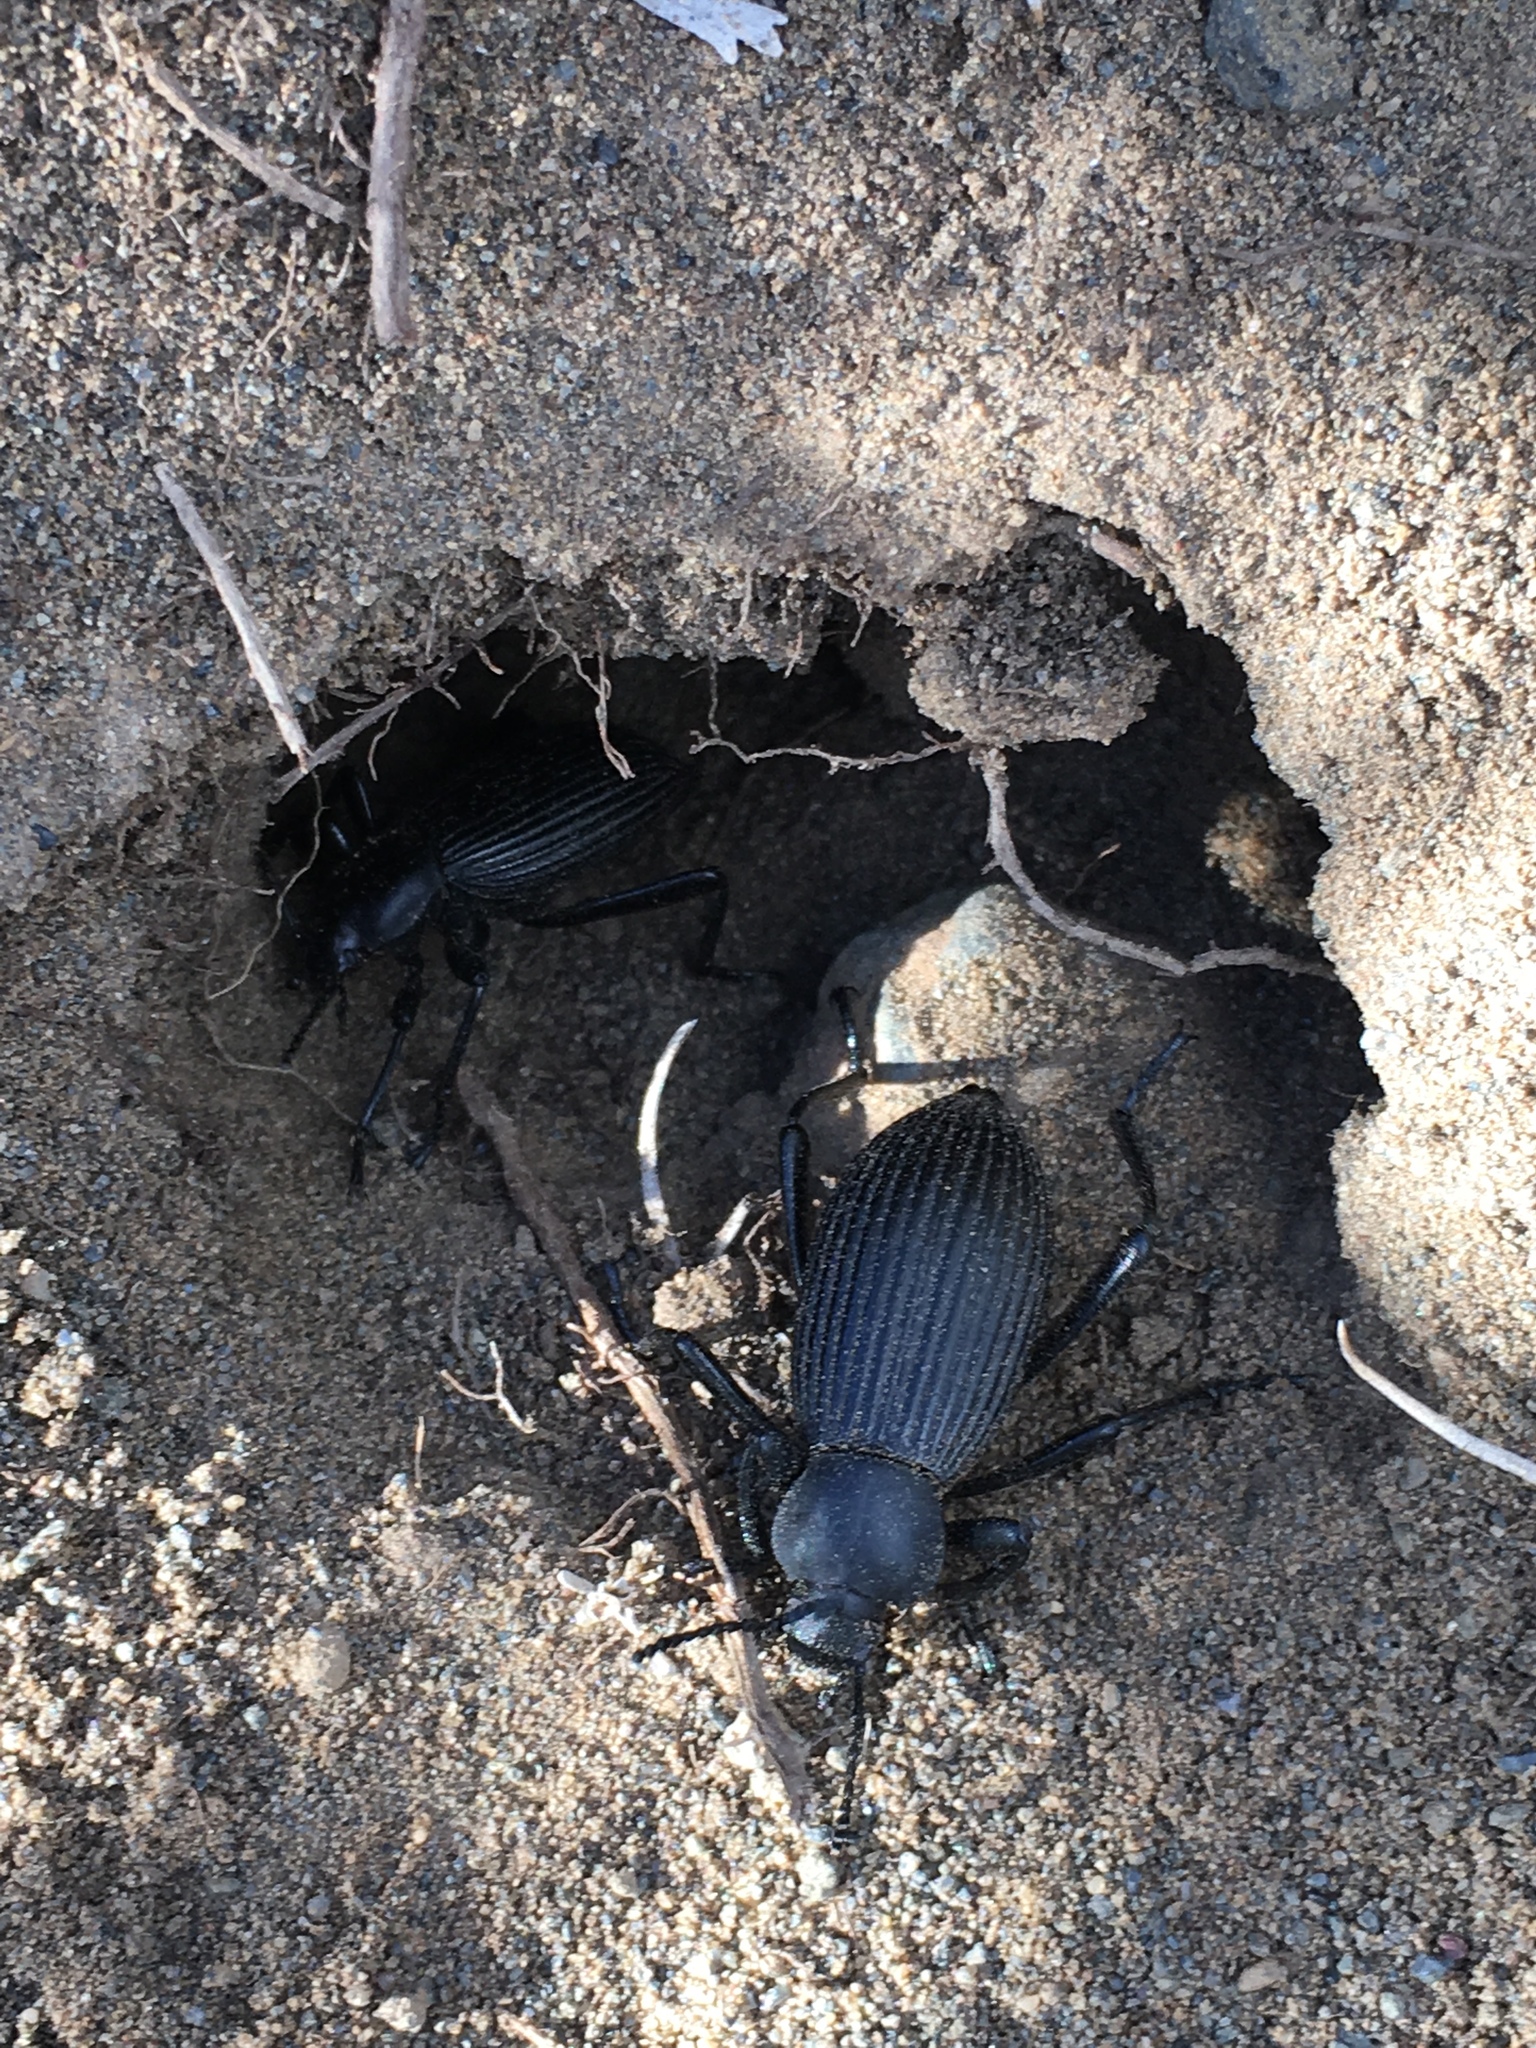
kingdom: Animalia
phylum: Arthropoda
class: Insecta
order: Coleoptera
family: Tenebrionidae
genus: Eleodes
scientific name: Eleodes hispilabris
